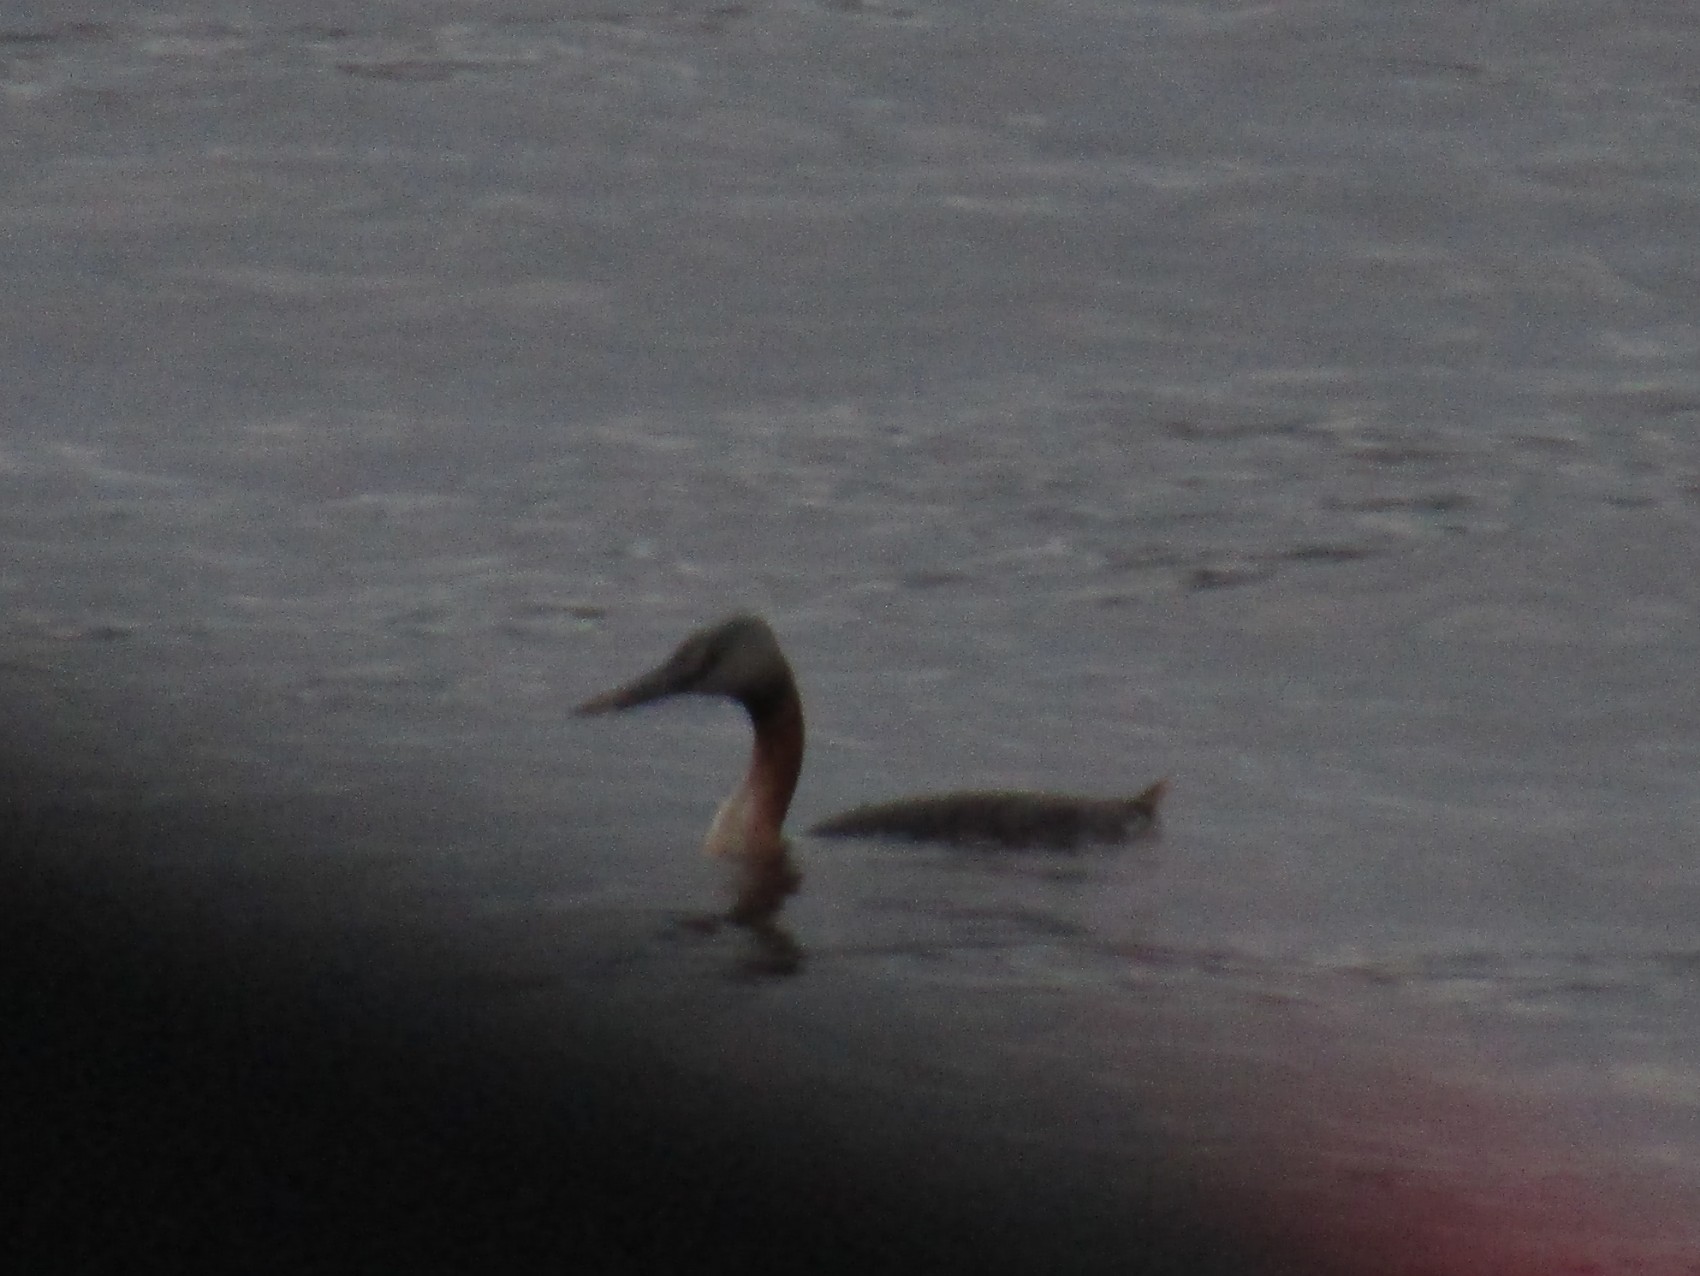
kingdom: Animalia
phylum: Chordata
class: Aves
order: Podicipediformes
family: Podicipedidae
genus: Podiceps
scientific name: Podiceps major
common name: Great grebe
